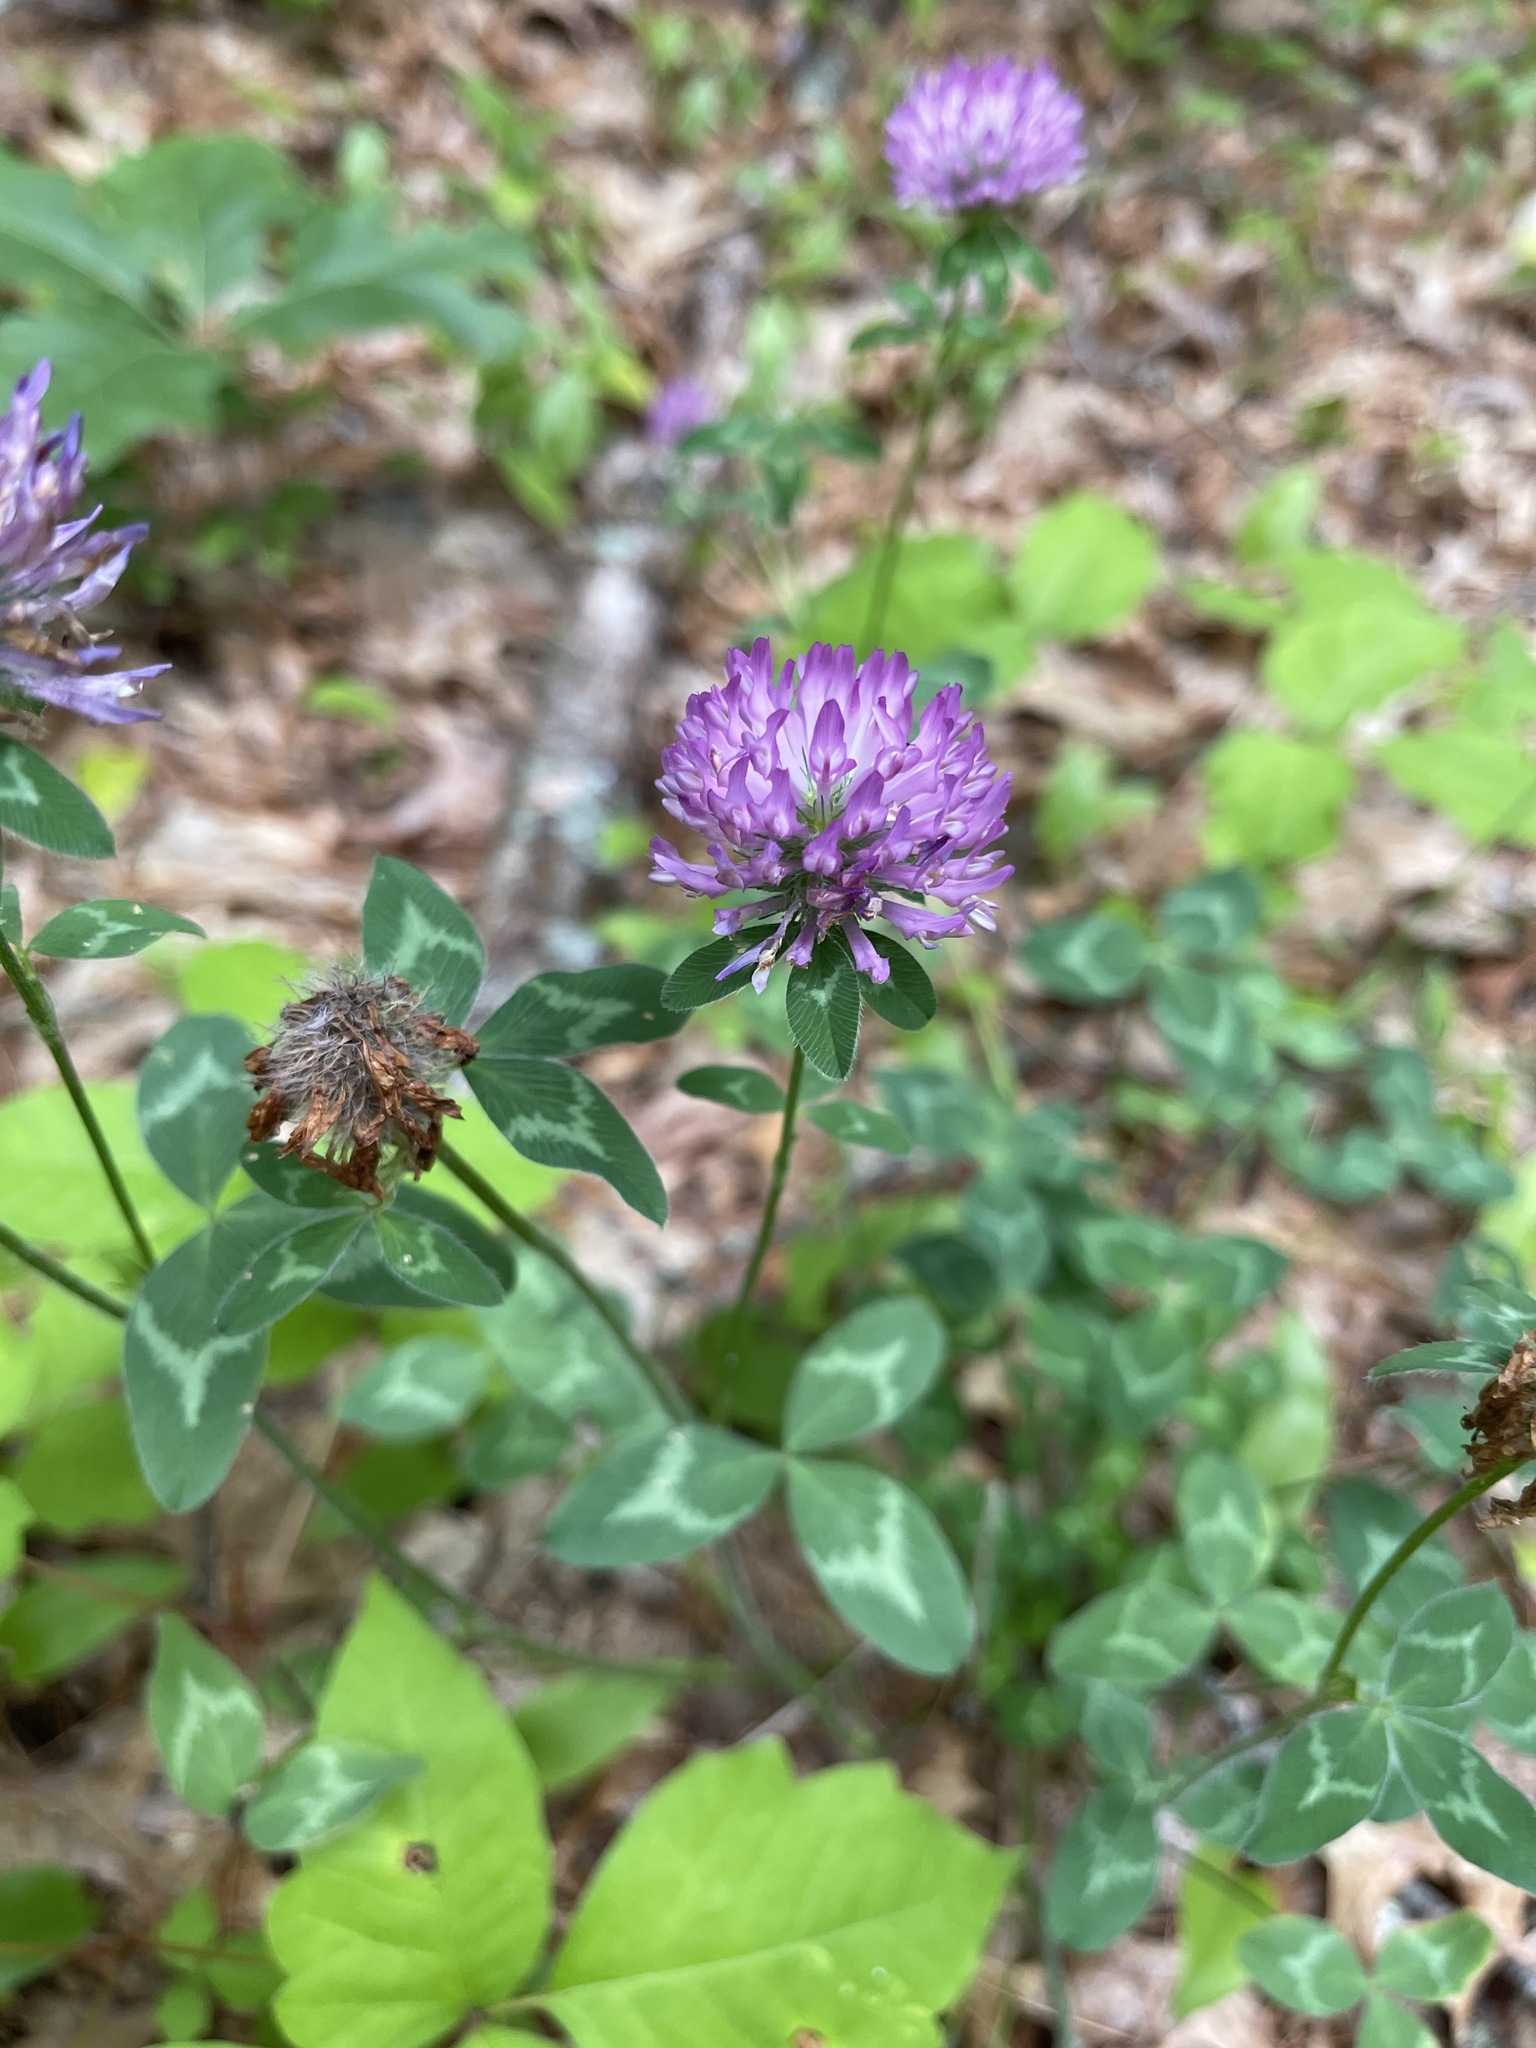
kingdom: Plantae
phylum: Tracheophyta
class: Magnoliopsida
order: Fabales
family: Fabaceae
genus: Trifolium
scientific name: Trifolium pratense
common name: Red clover
